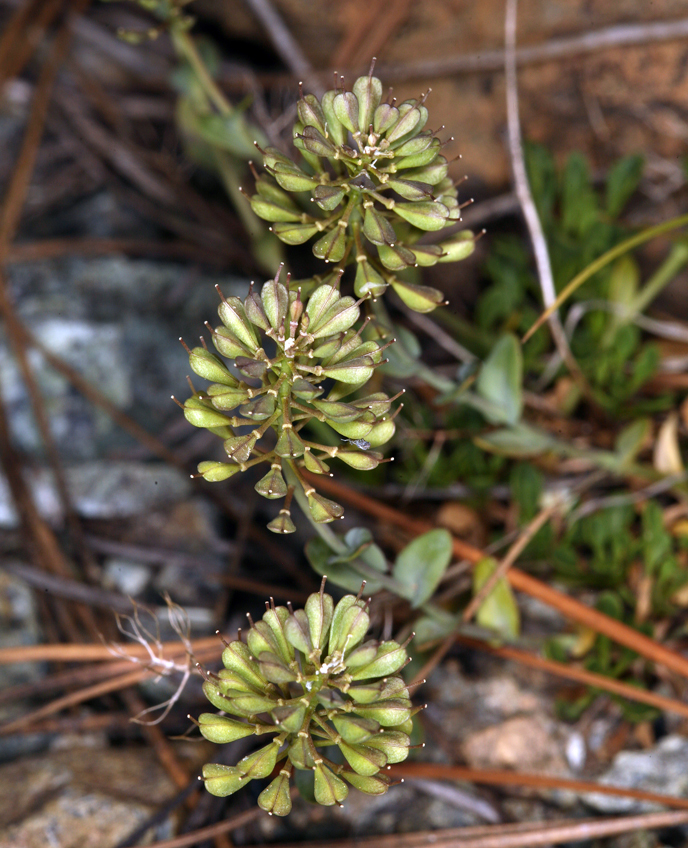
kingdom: Plantae
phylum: Tracheophyta
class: Magnoliopsida
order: Brassicales
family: Brassicaceae
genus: Noccaea
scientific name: Noccaea fendleri
